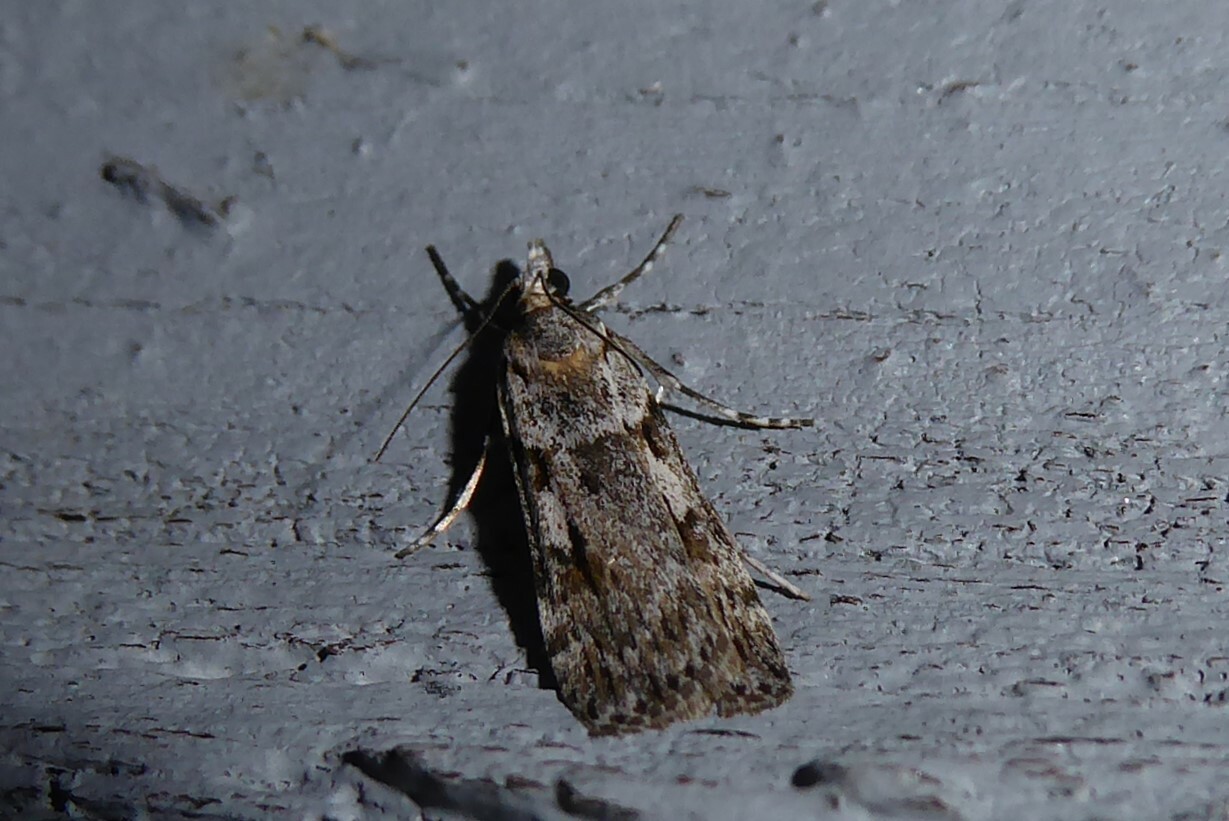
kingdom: Animalia
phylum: Arthropoda
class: Insecta
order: Lepidoptera
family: Crambidae
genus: Scoparia
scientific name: Scoparia halopis
